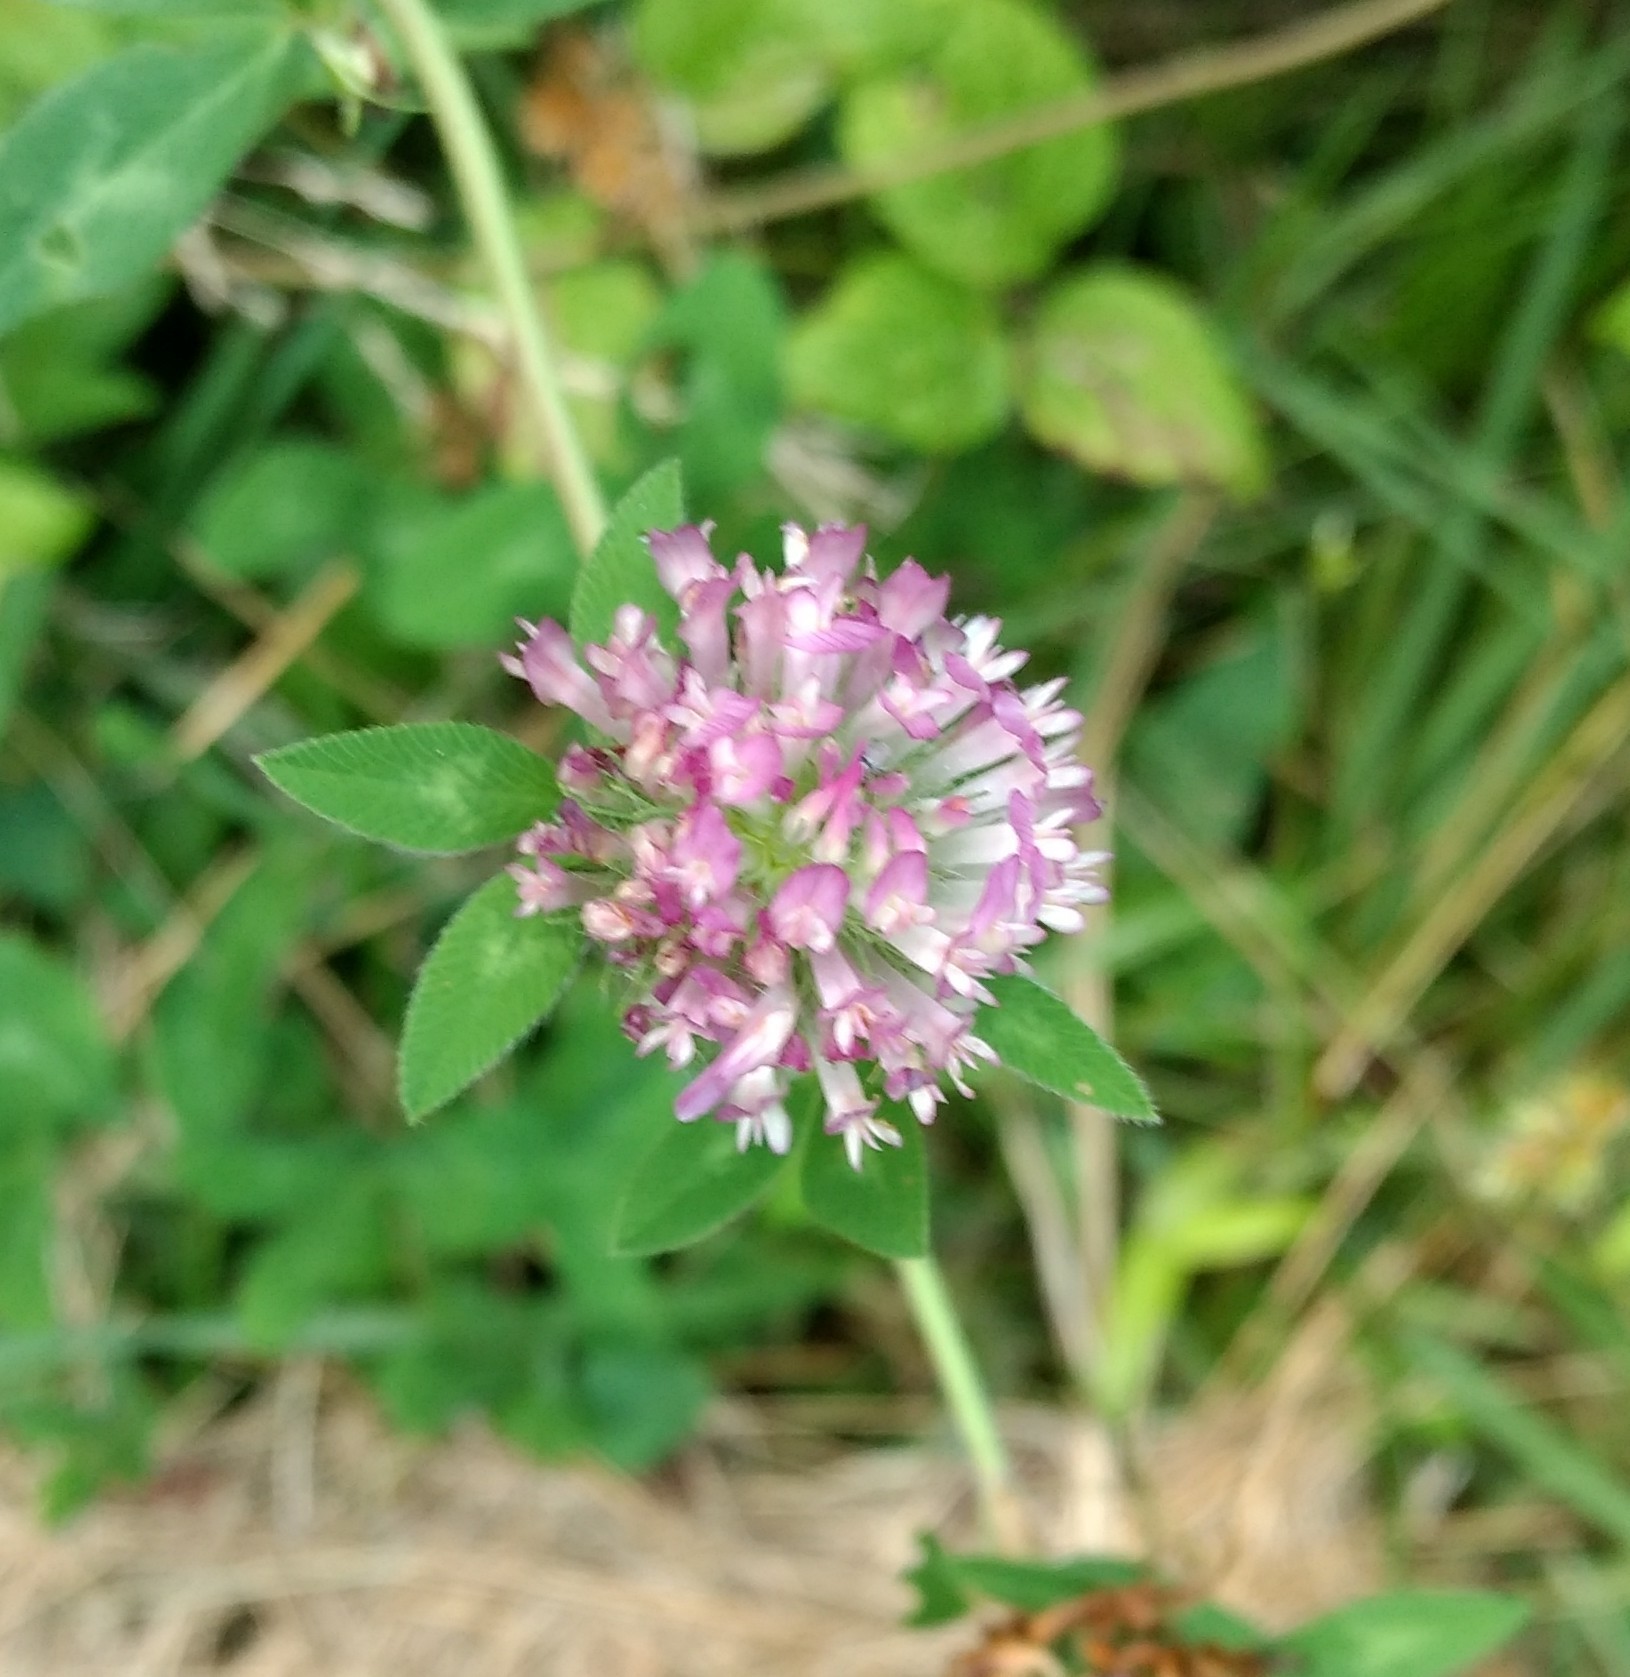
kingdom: Plantae
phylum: Tracheophyta
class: Magnoliopsida
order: Fabales
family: Fabaceae
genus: Trifolium
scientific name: Trifolium pratense
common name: Red clover
